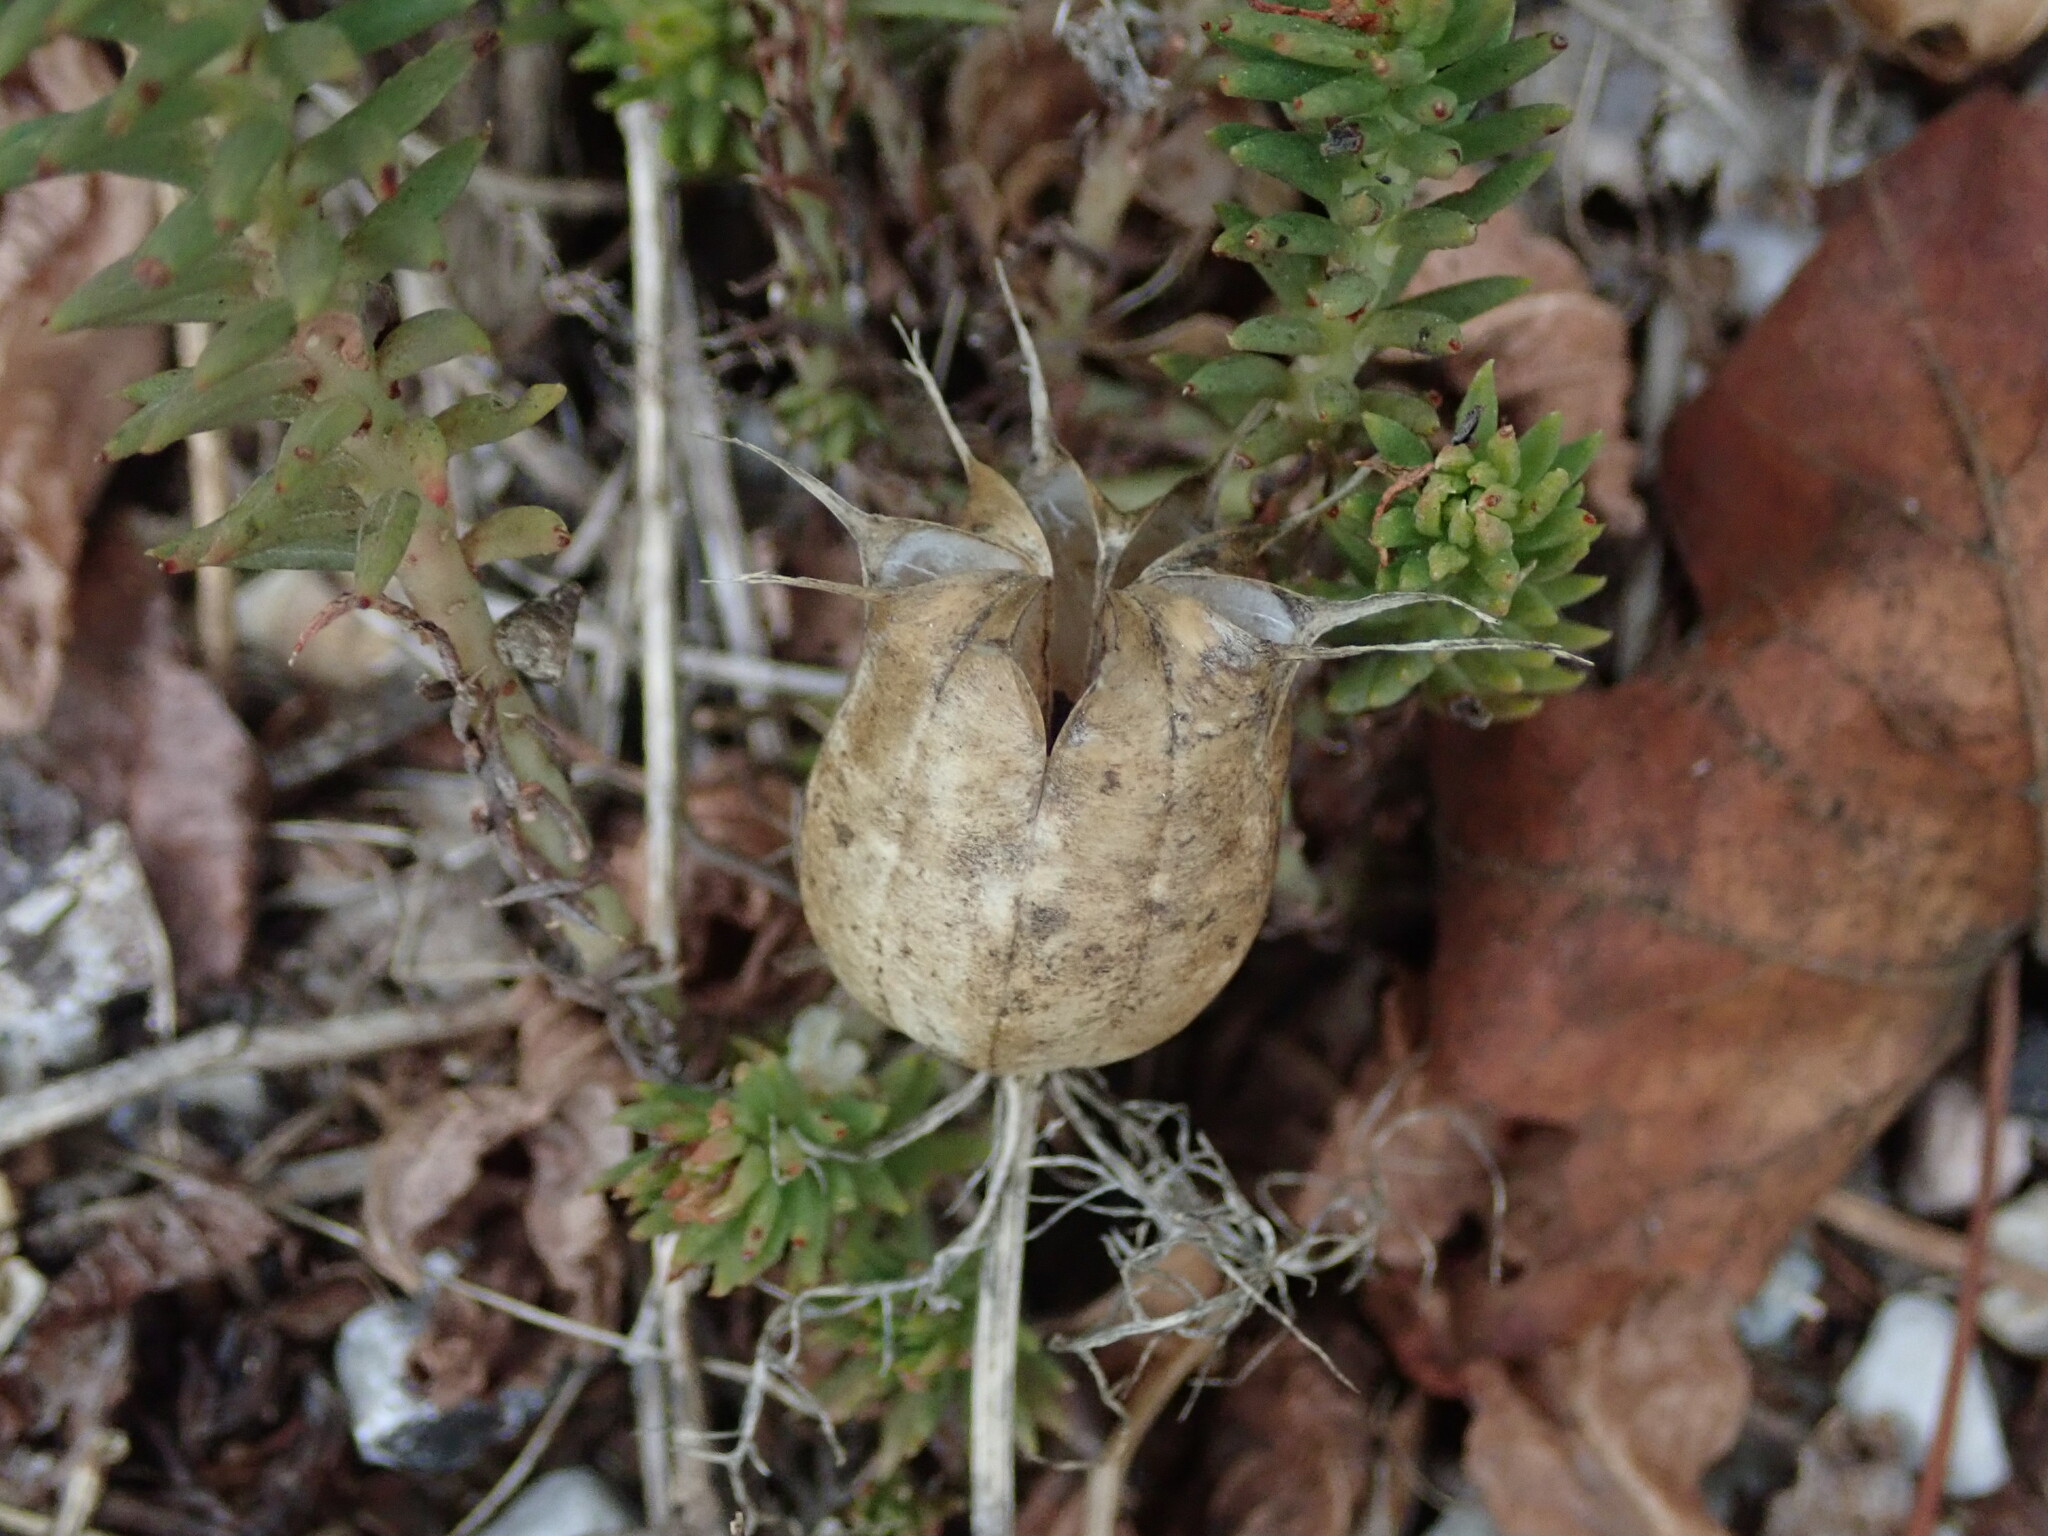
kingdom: Plantae
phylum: Tracheophyta
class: Magnoliopsida
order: Ranunculales
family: Ranunculaceae
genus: Nigella
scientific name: Nigella damascena
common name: Love-in-a-mist
